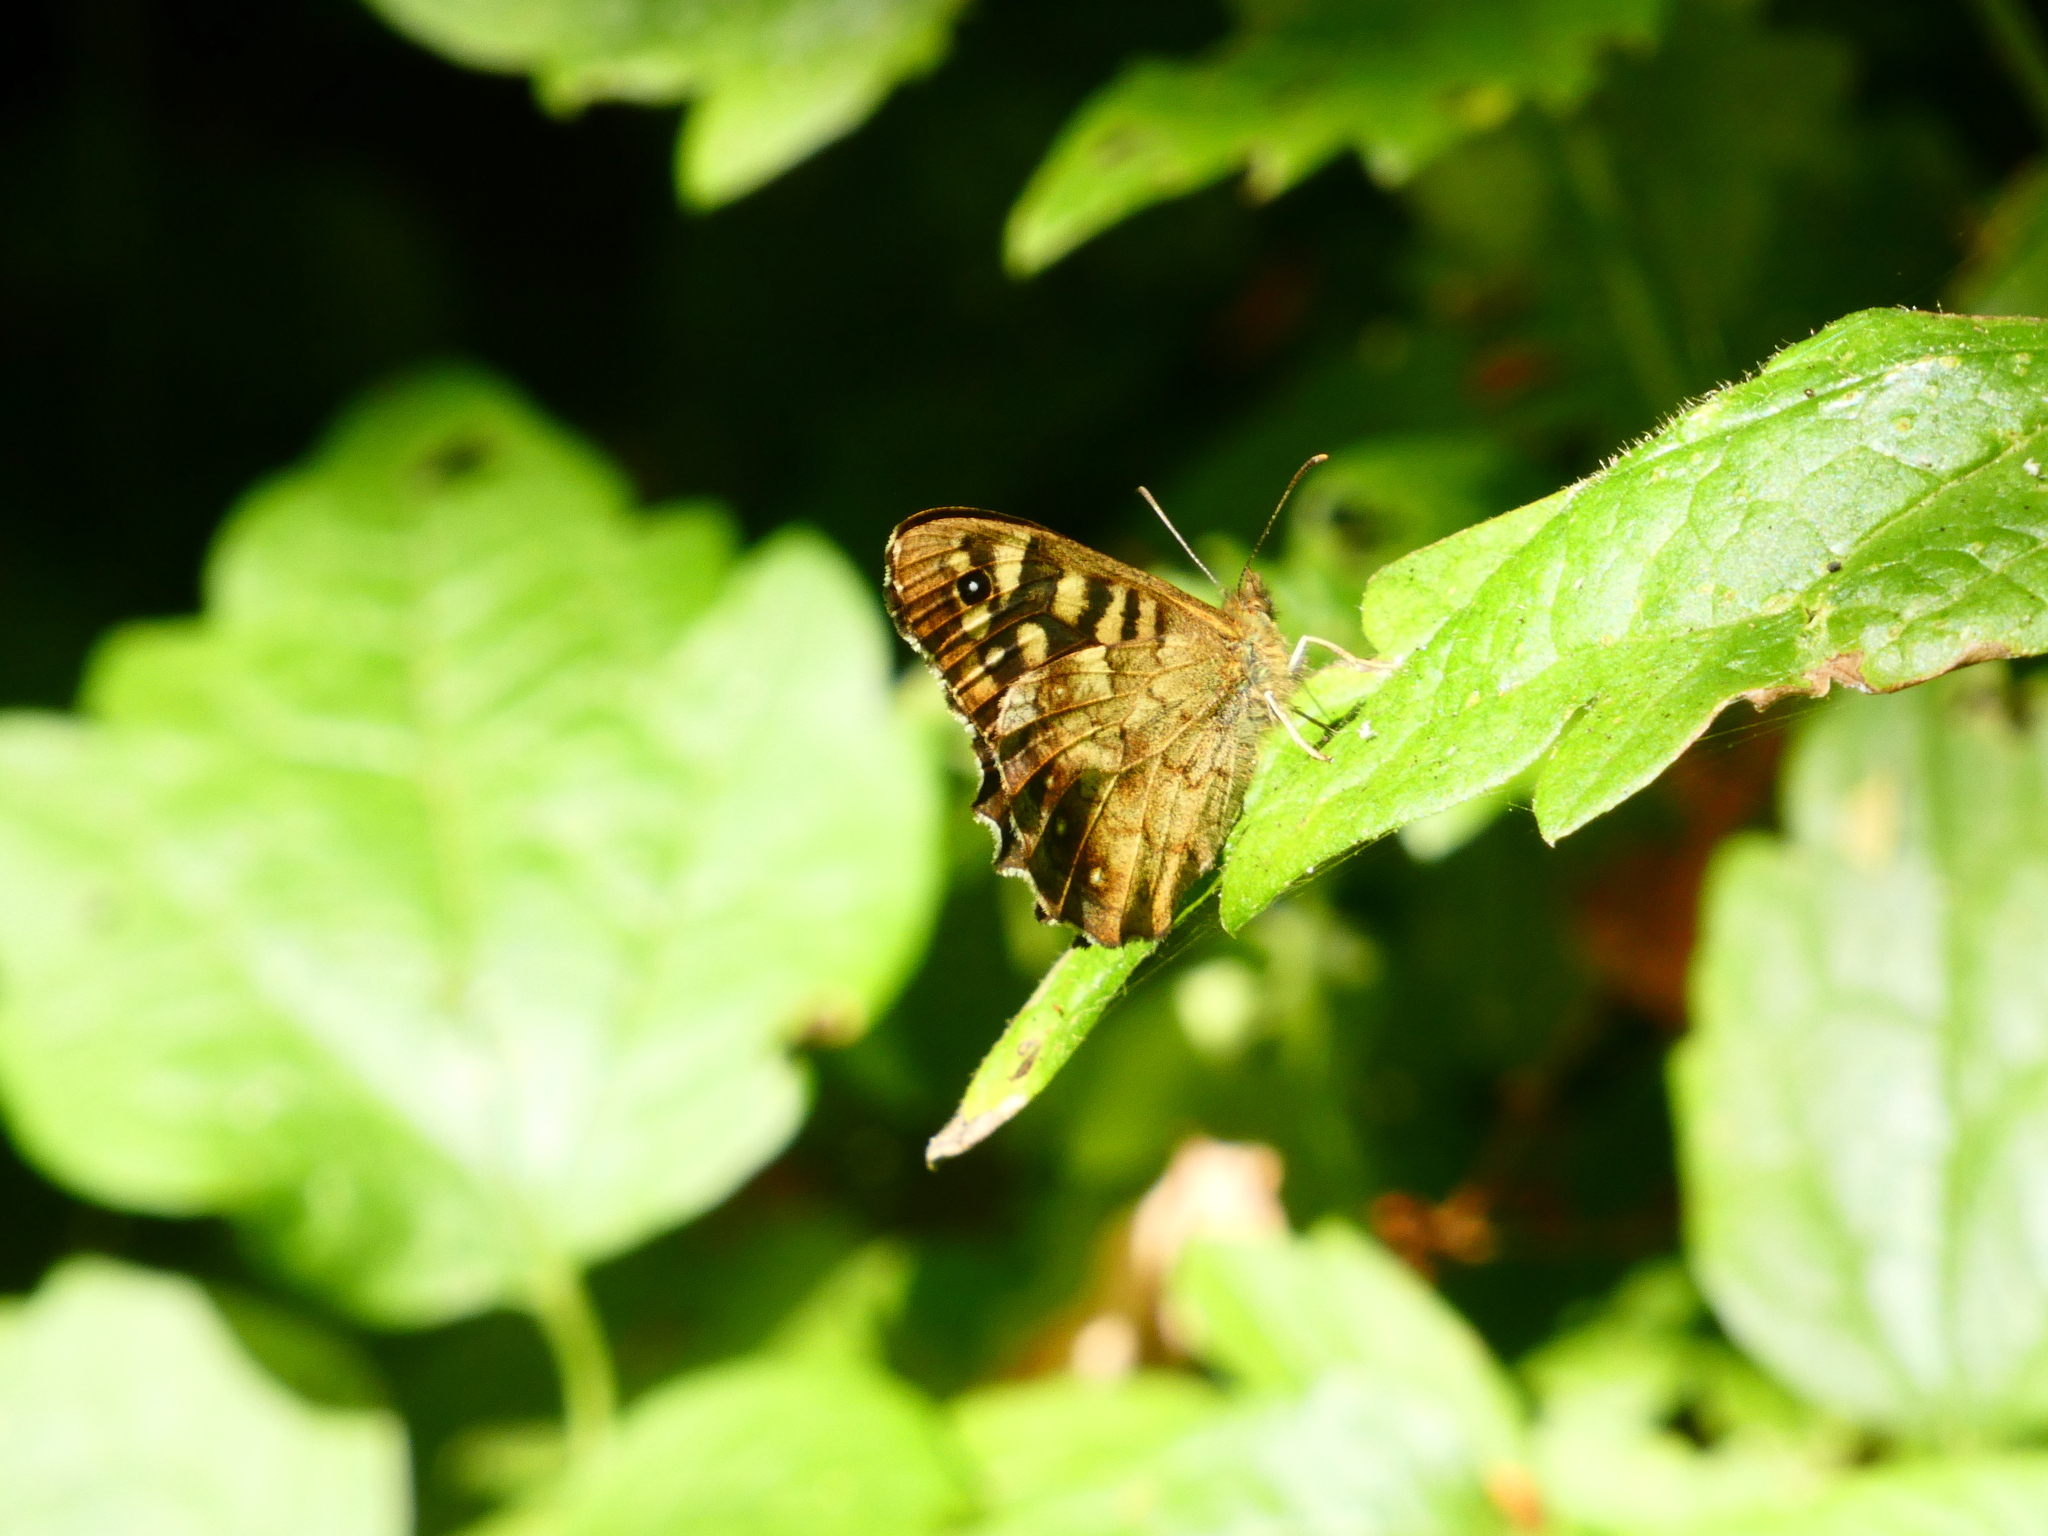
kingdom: Animalia
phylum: Arthropoda
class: Insecta
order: Lepidoptera
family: Nymphalidae
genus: Pararge
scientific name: Pararge aegeria
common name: Speckled wood
